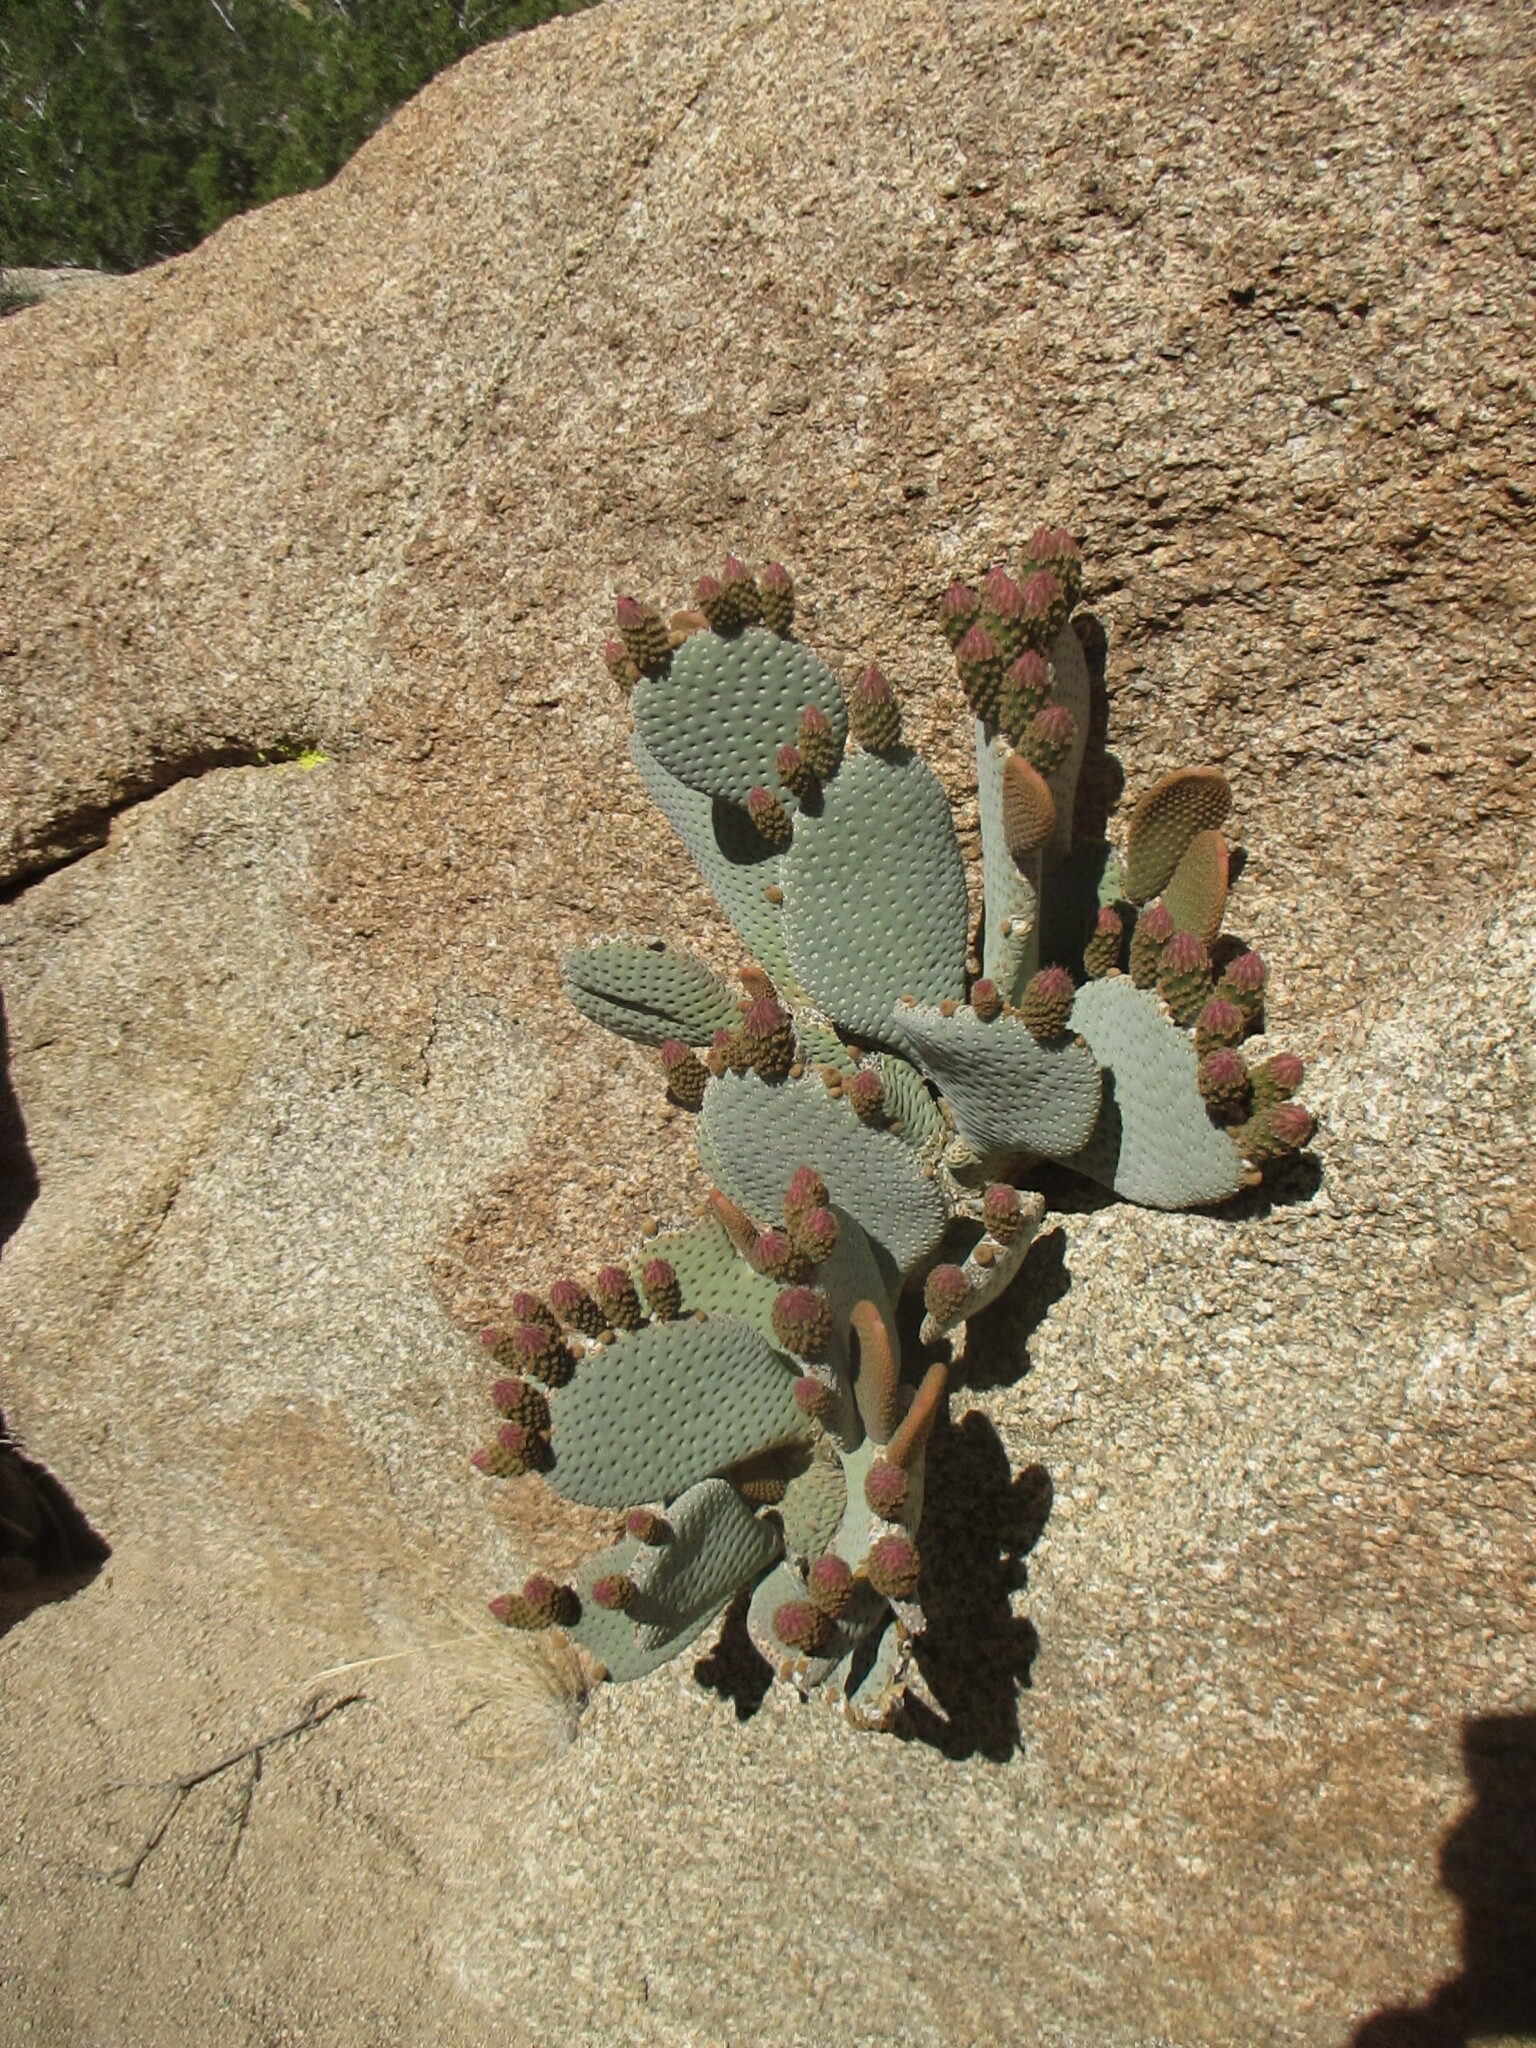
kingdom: Plantae
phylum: Tracheophyta
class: Magnoliopsida
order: Caryophyllales
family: Cactaceae
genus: Opuntia
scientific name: Opuntia basilaris
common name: Beavertail prickly-pear
